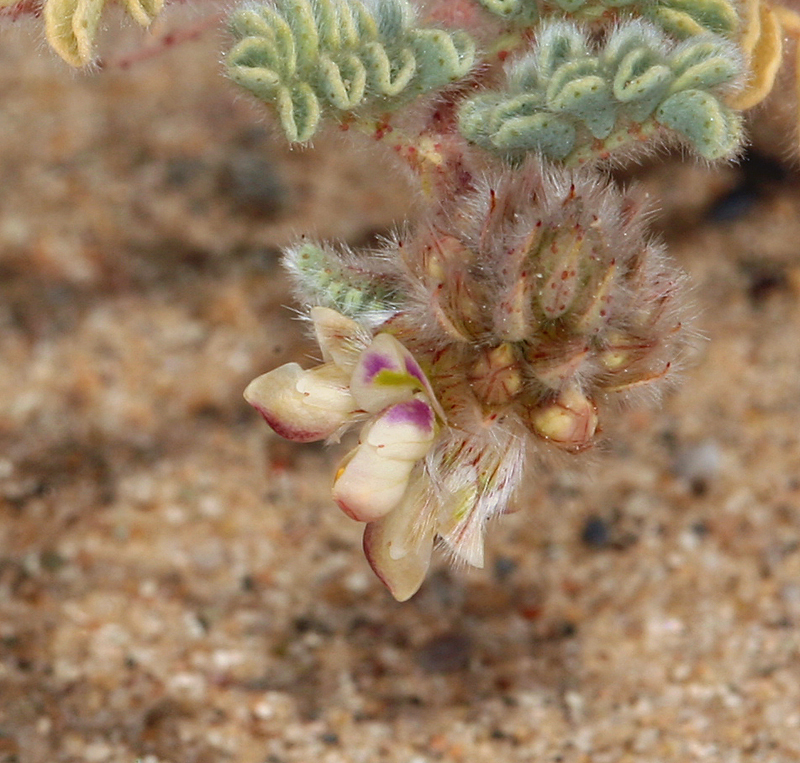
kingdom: Plantae
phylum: Tracheophyta
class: Magnoliopsida
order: Fabales
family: Fabaceae
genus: Dalea
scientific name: Dalea mollis
